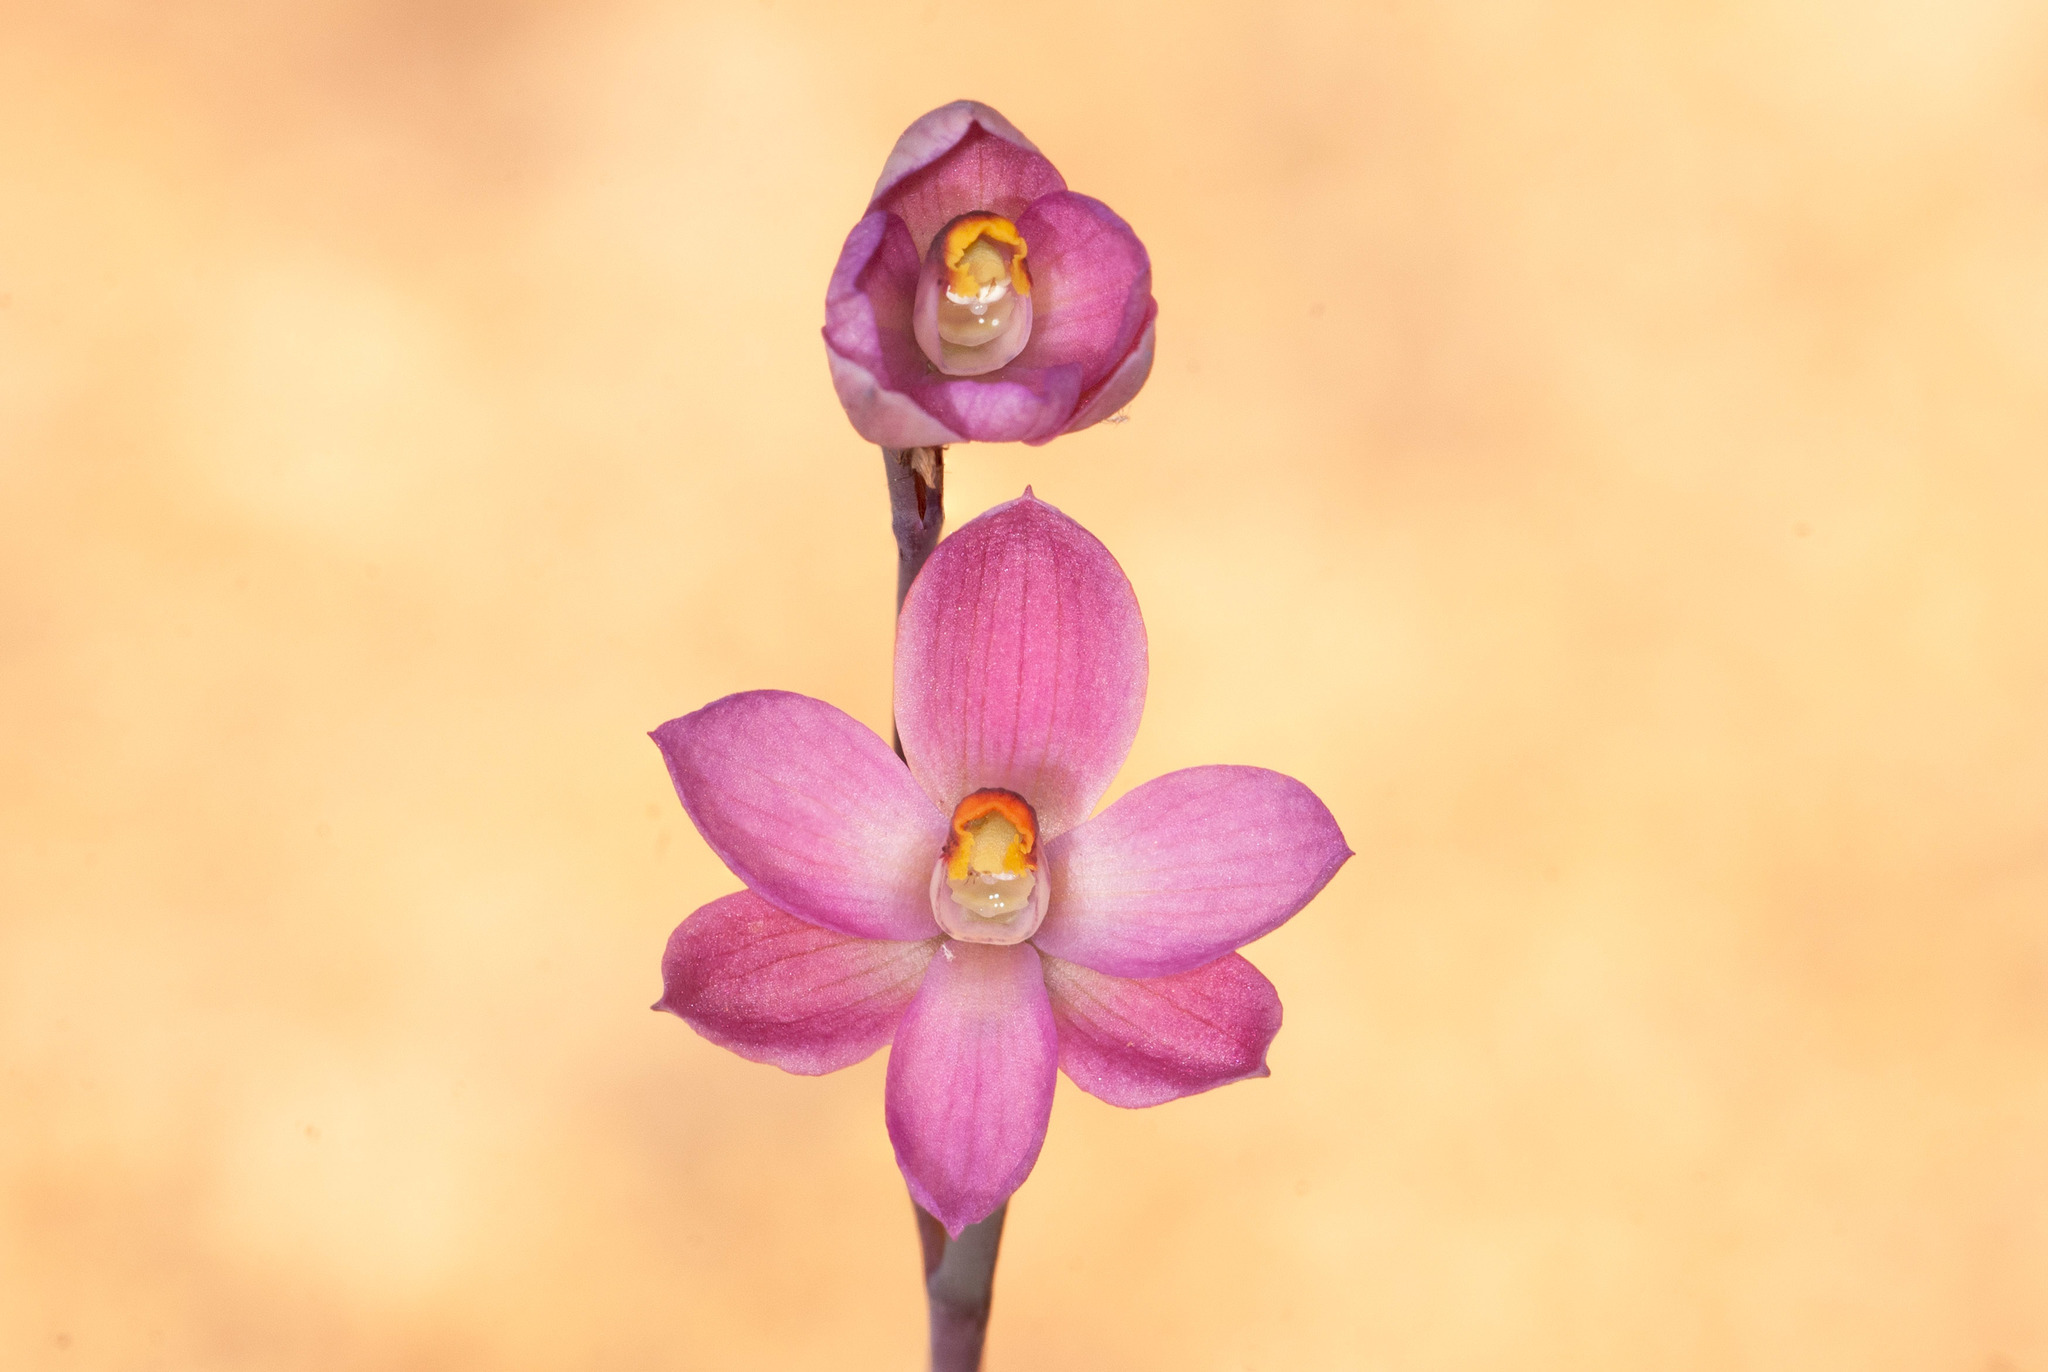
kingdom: Plantae
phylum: Tracheophyta
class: Liliopsida
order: Asparagales
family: Orchidaceae
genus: Thelymitra
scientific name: Thelymitra rubra
